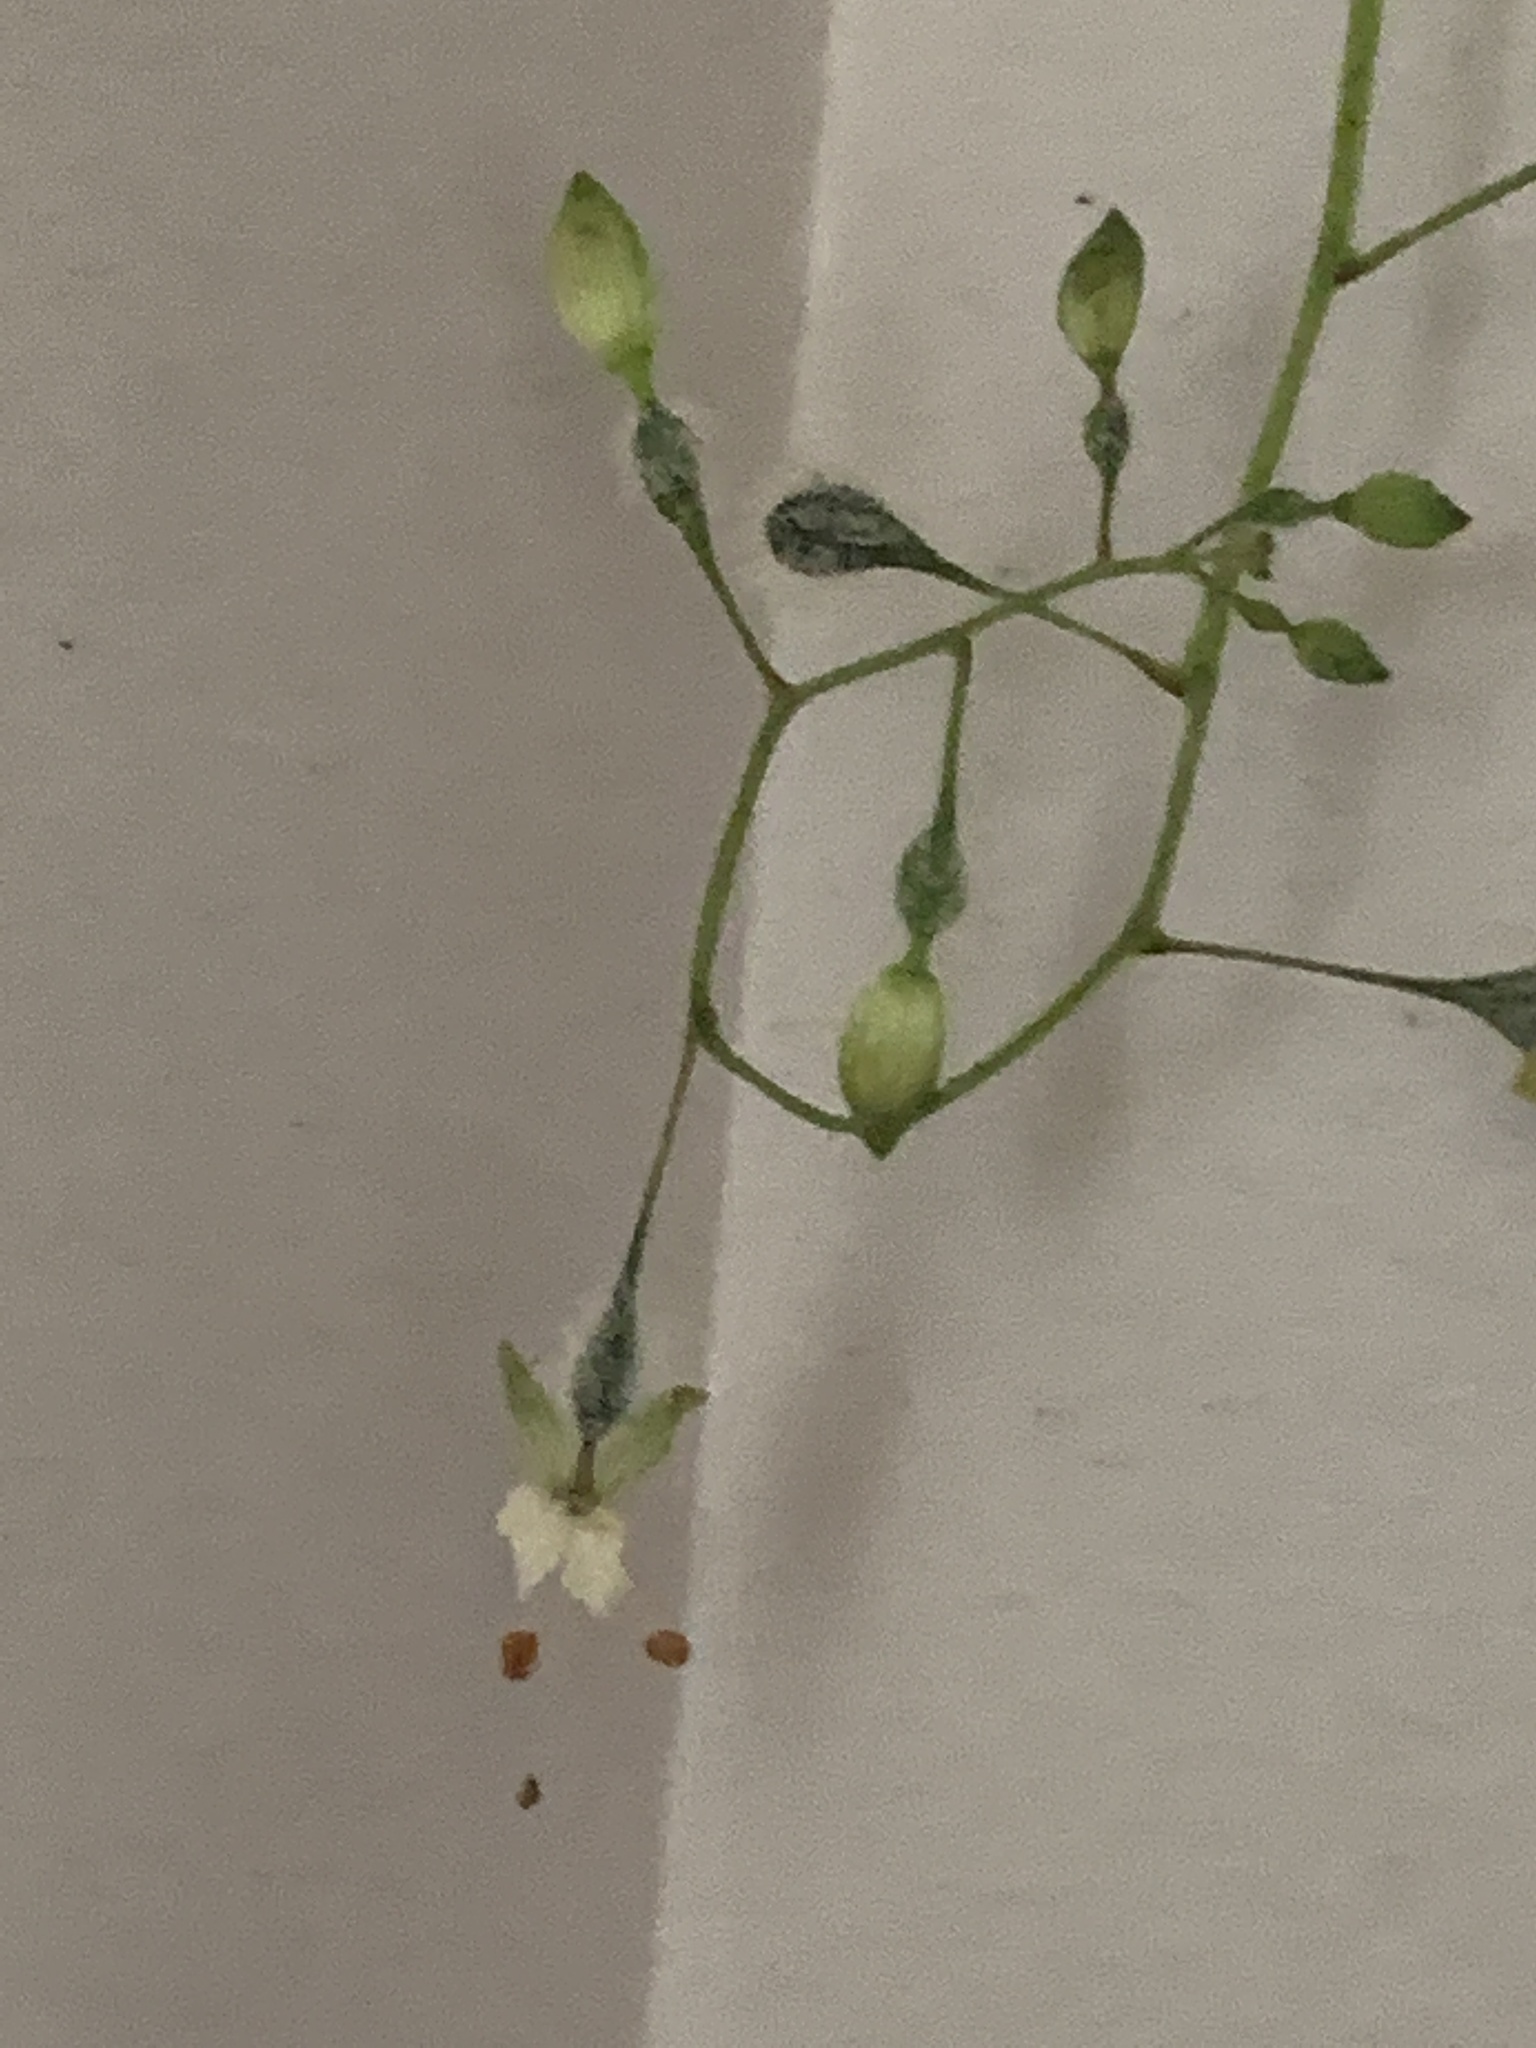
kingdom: Plantae
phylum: Tracheophyta
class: Magnoliopsida
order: Myrtales
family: Onagraceae
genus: Circaea
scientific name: Circaea canadensis
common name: Broad-leaved enchanter's nightshade
